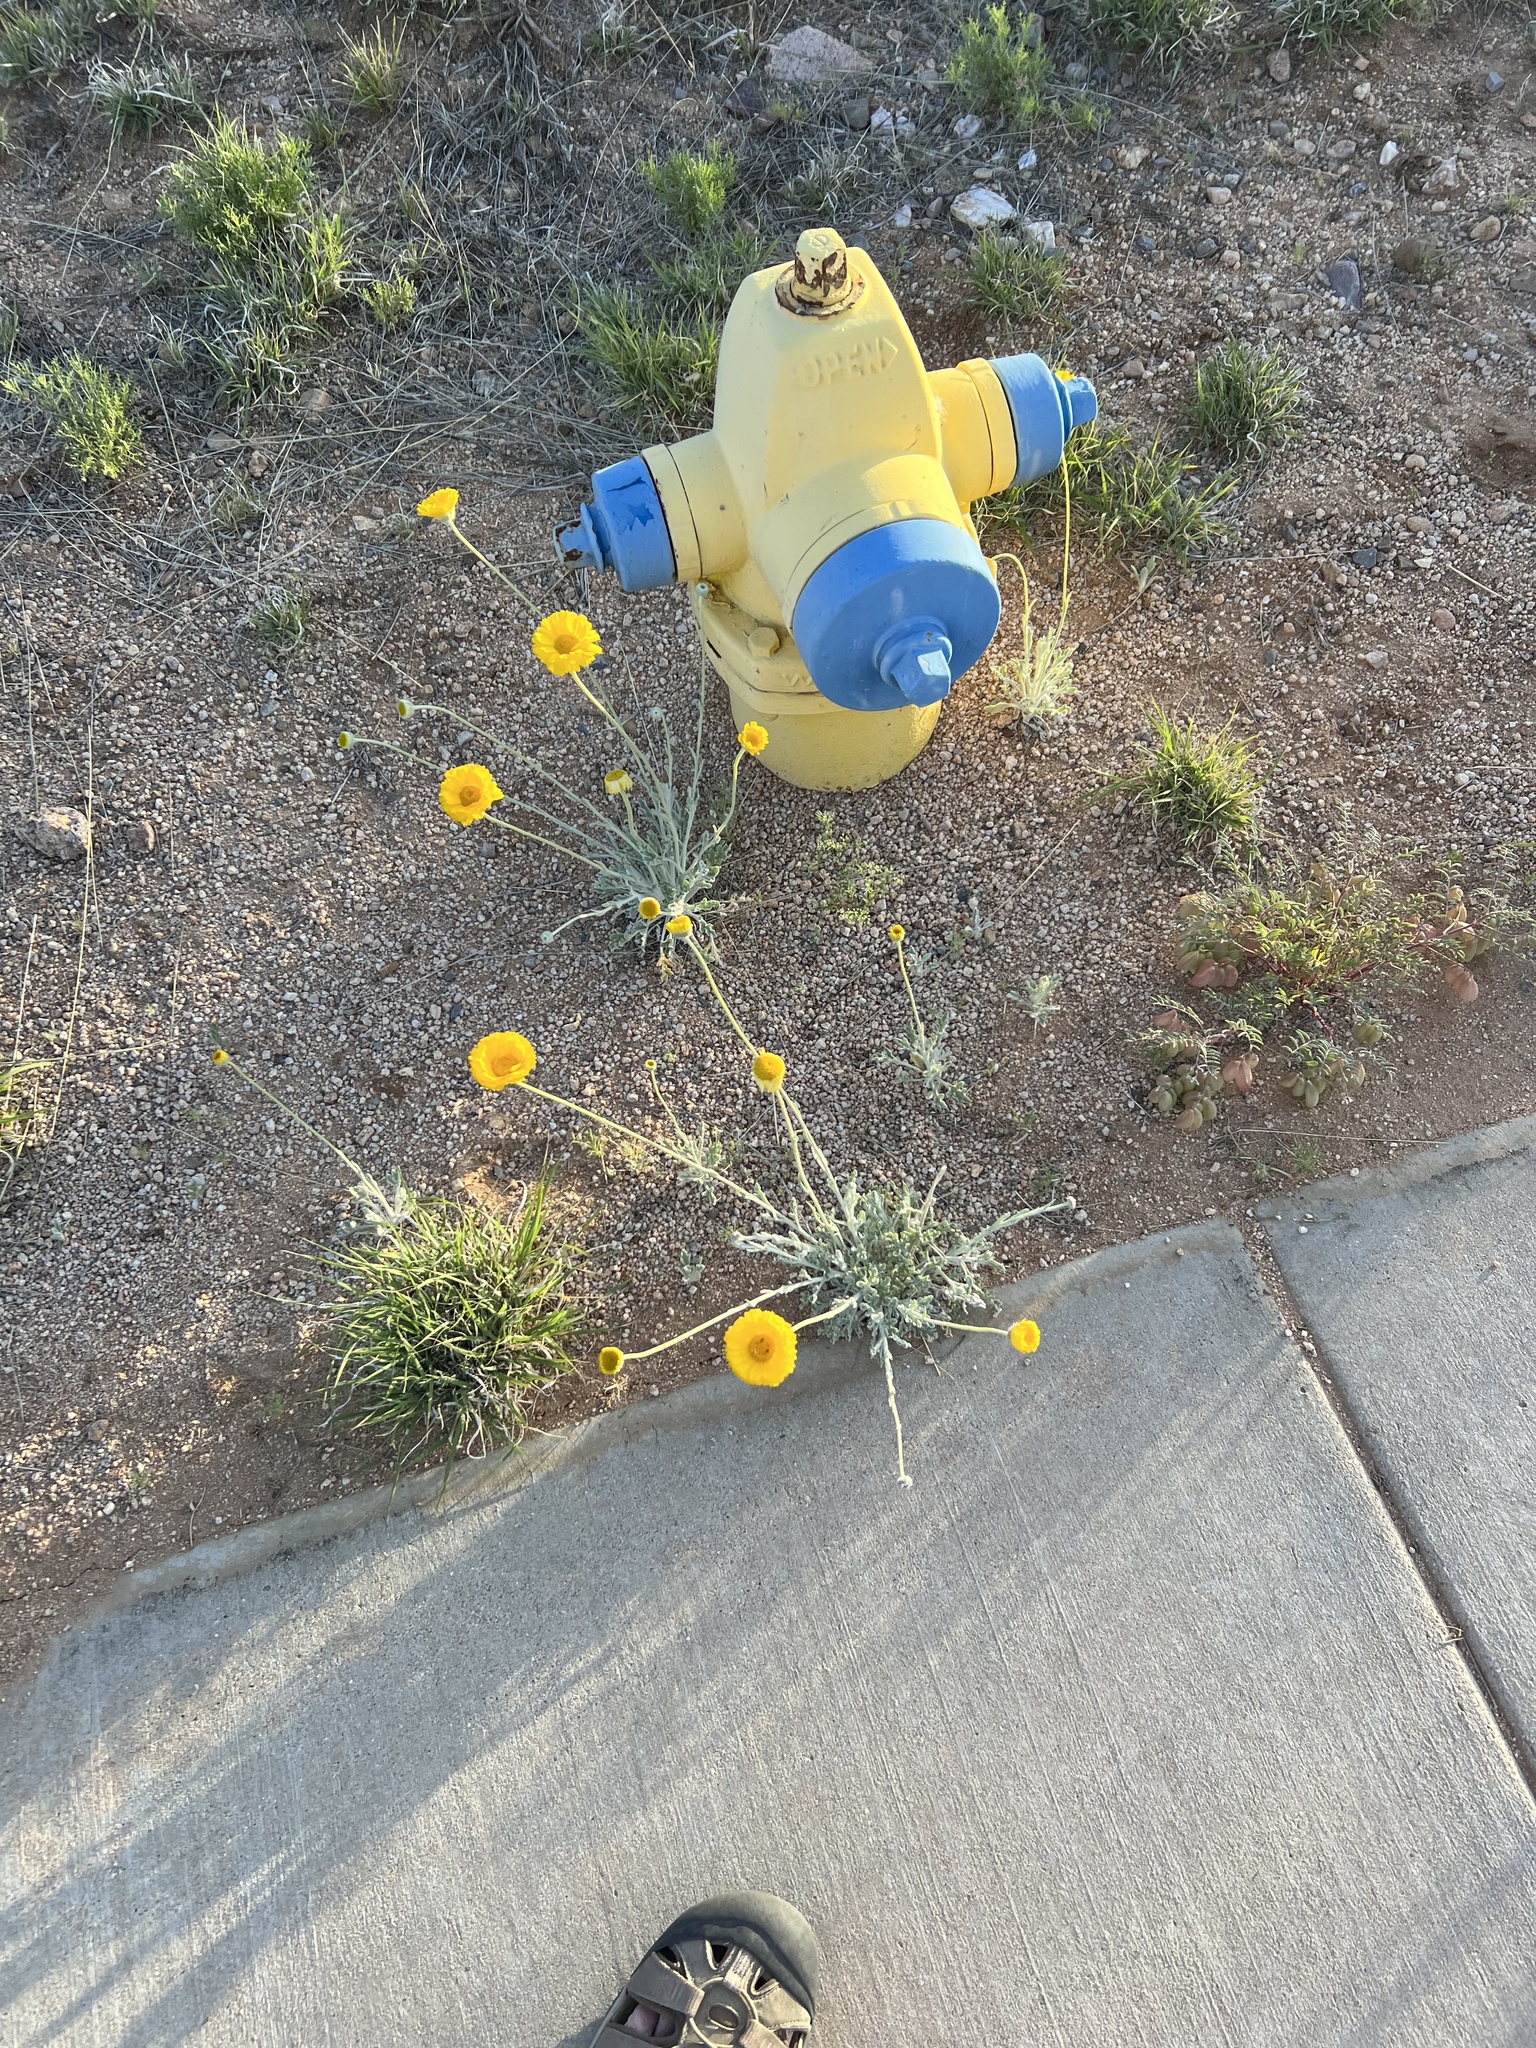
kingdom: Plantae
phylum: Tracheophyta
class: Magnoliopsida
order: Asterales
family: Asteraceae
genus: Baileya
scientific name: Baileya multiradiata
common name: Desert-marigold
